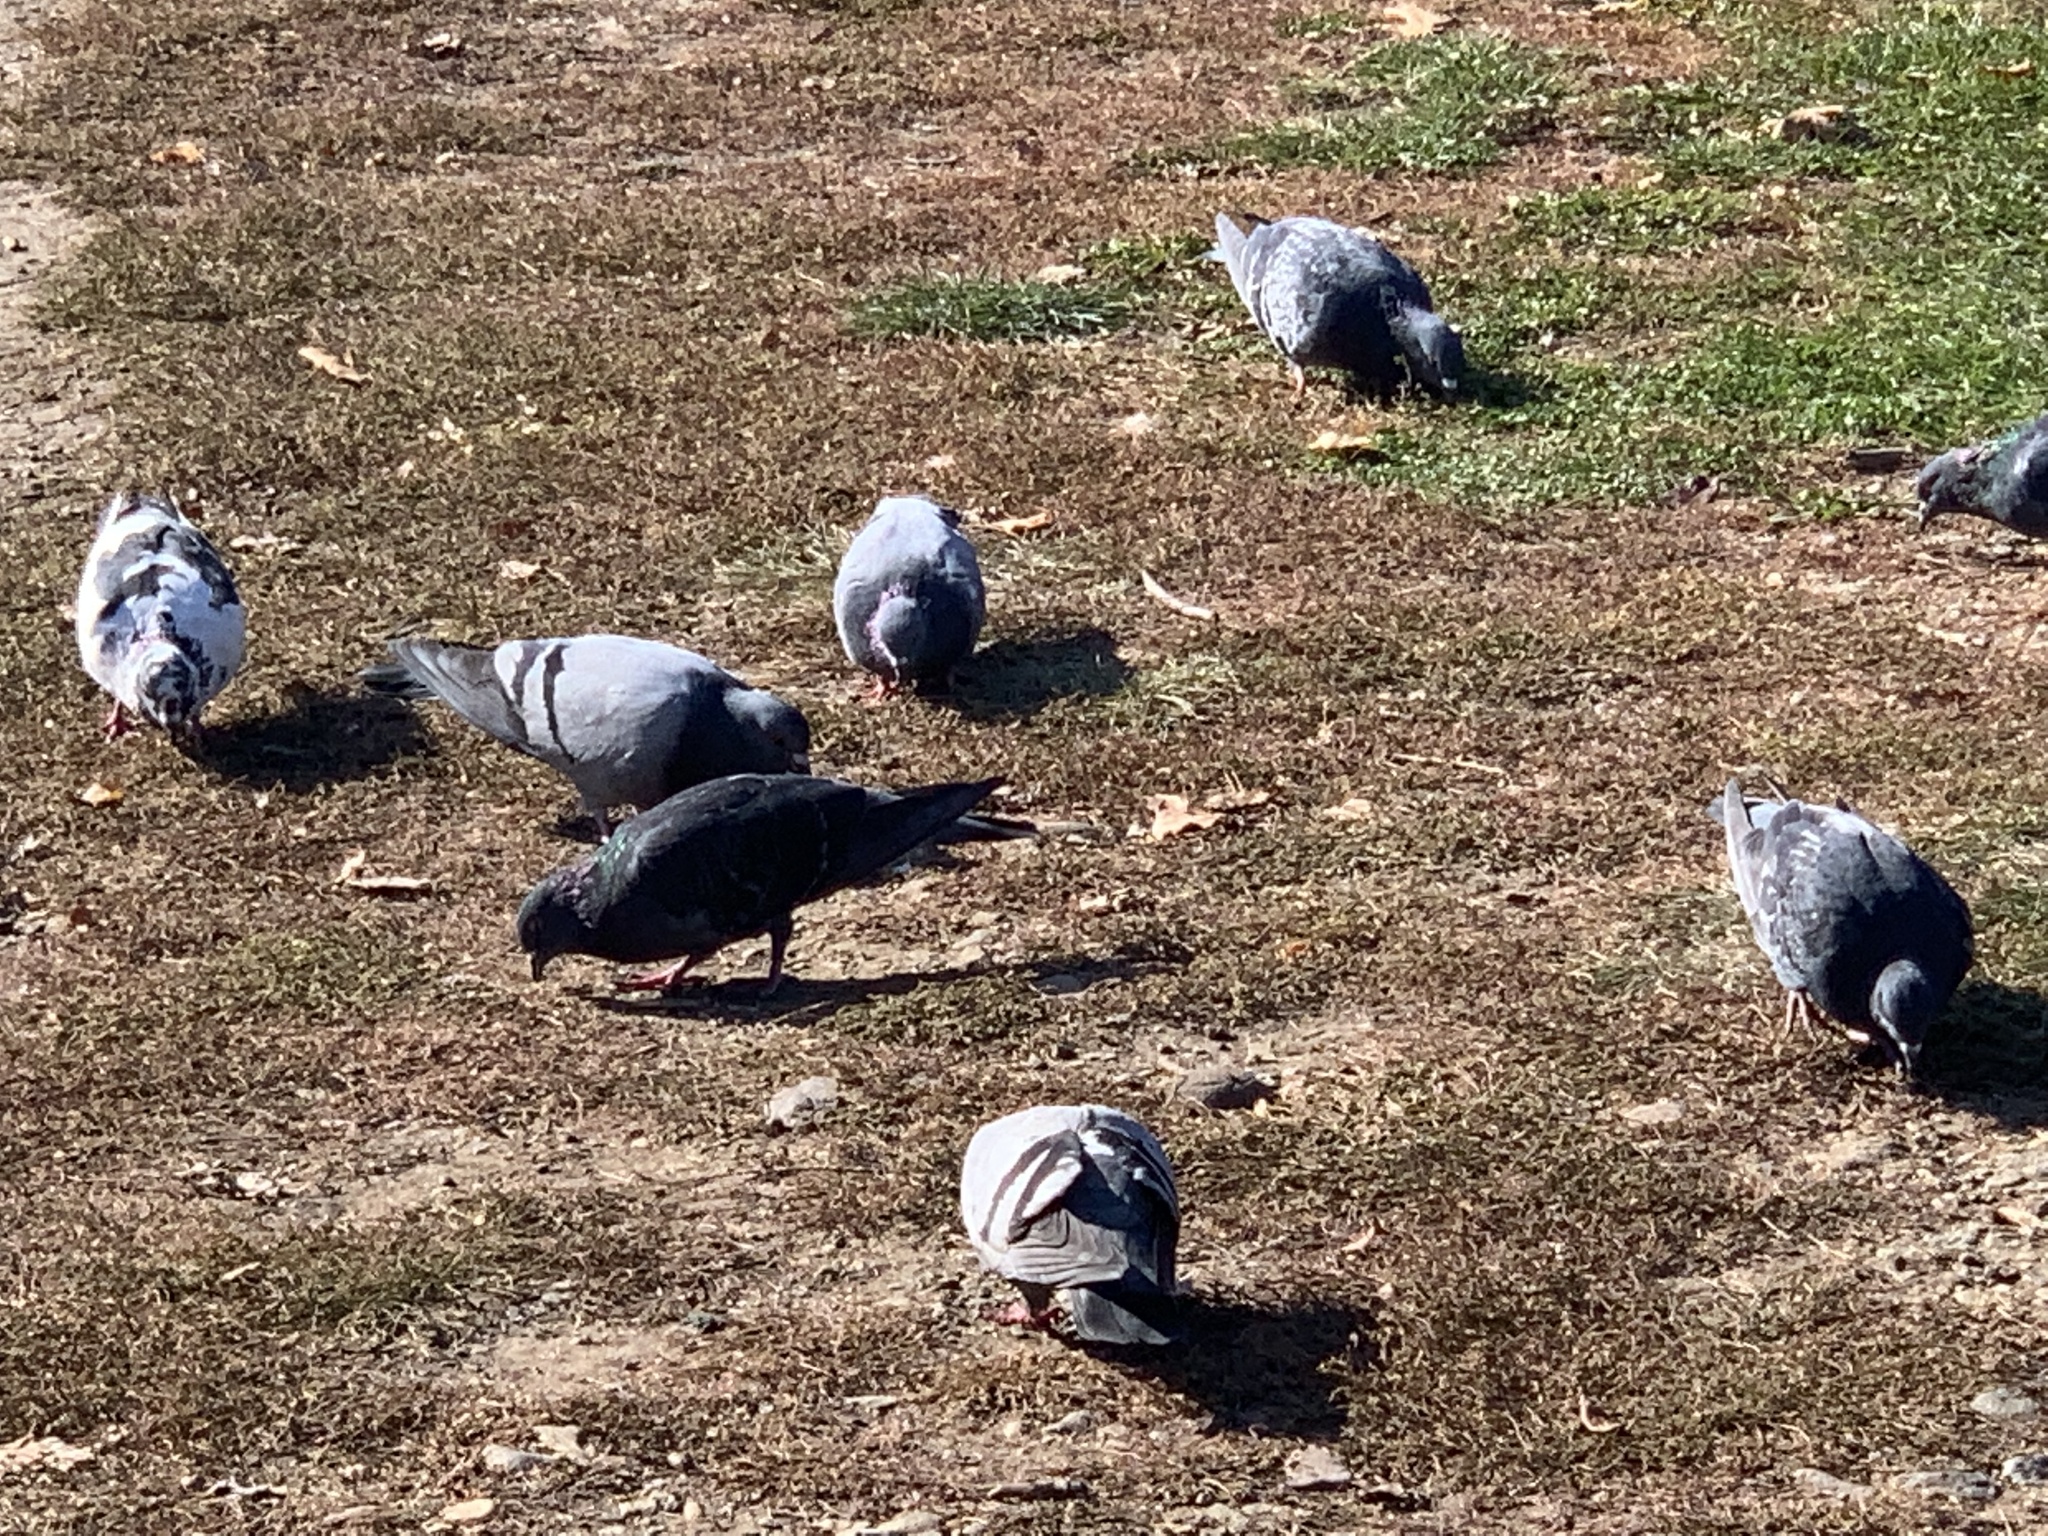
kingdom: Animalia
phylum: Chordata
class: Aves
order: Columbiformes
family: Columbidae
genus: Columba
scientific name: Columba livia
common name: Rock pigeon
